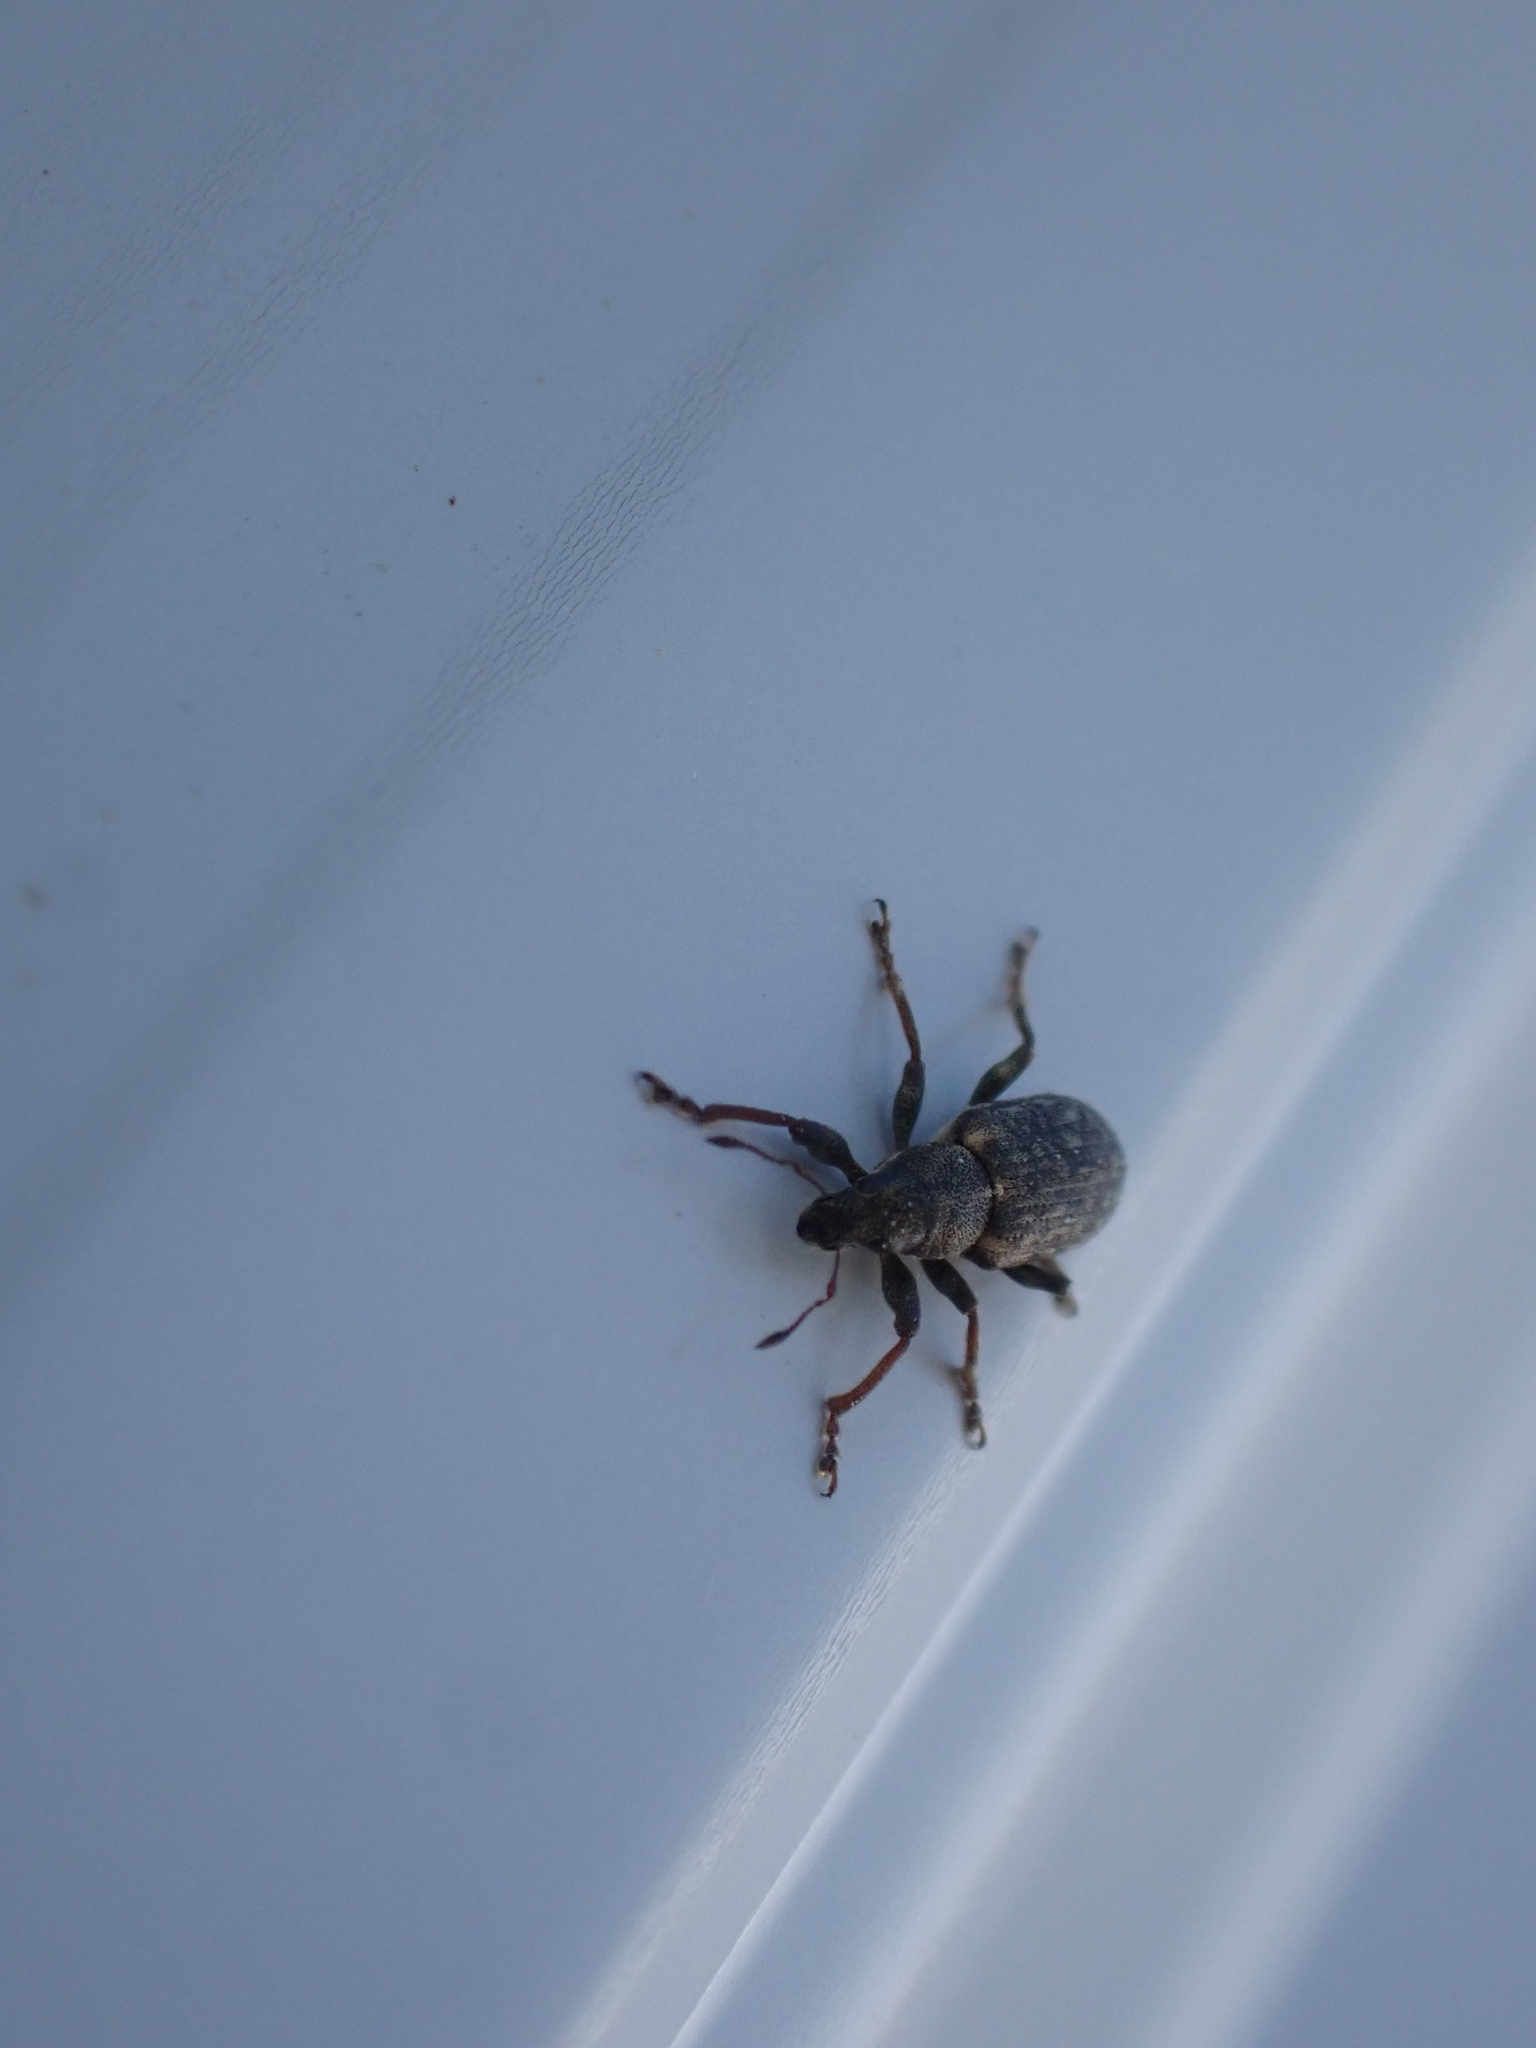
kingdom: Animalia
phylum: Arthropoda
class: Insecta
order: Coleoptera
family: Curculionidae
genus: Sitona
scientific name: Sitona cylindricollis
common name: Weevil
